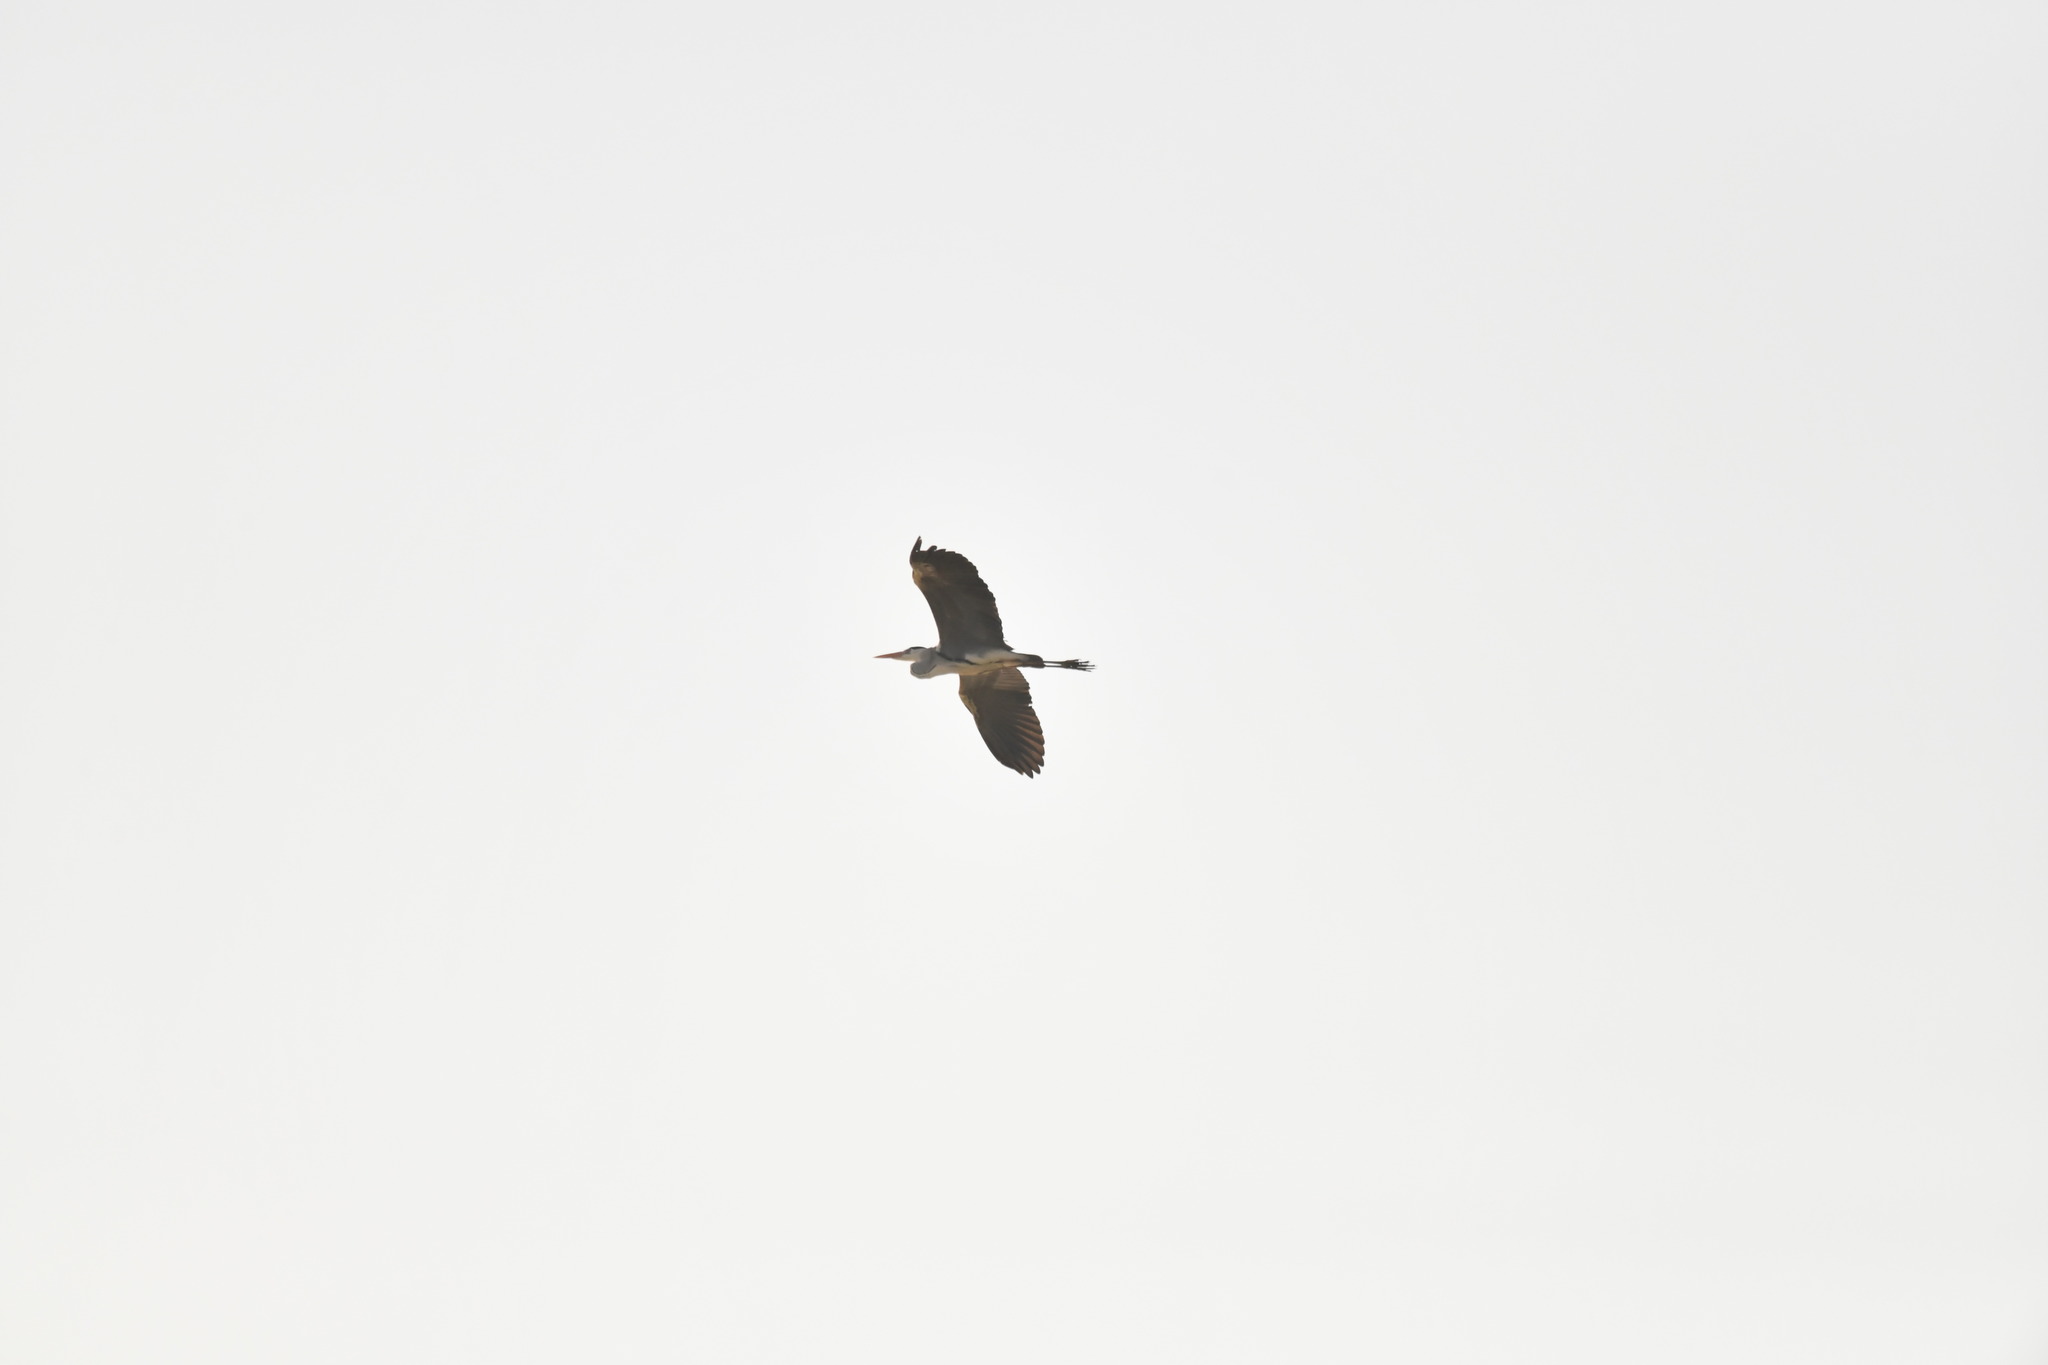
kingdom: Animalia
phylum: Chordata
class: Aves
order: Pelecaniformes
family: Ardeidae
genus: Ardea
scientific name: Ardea cinerea
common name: Grey heron
